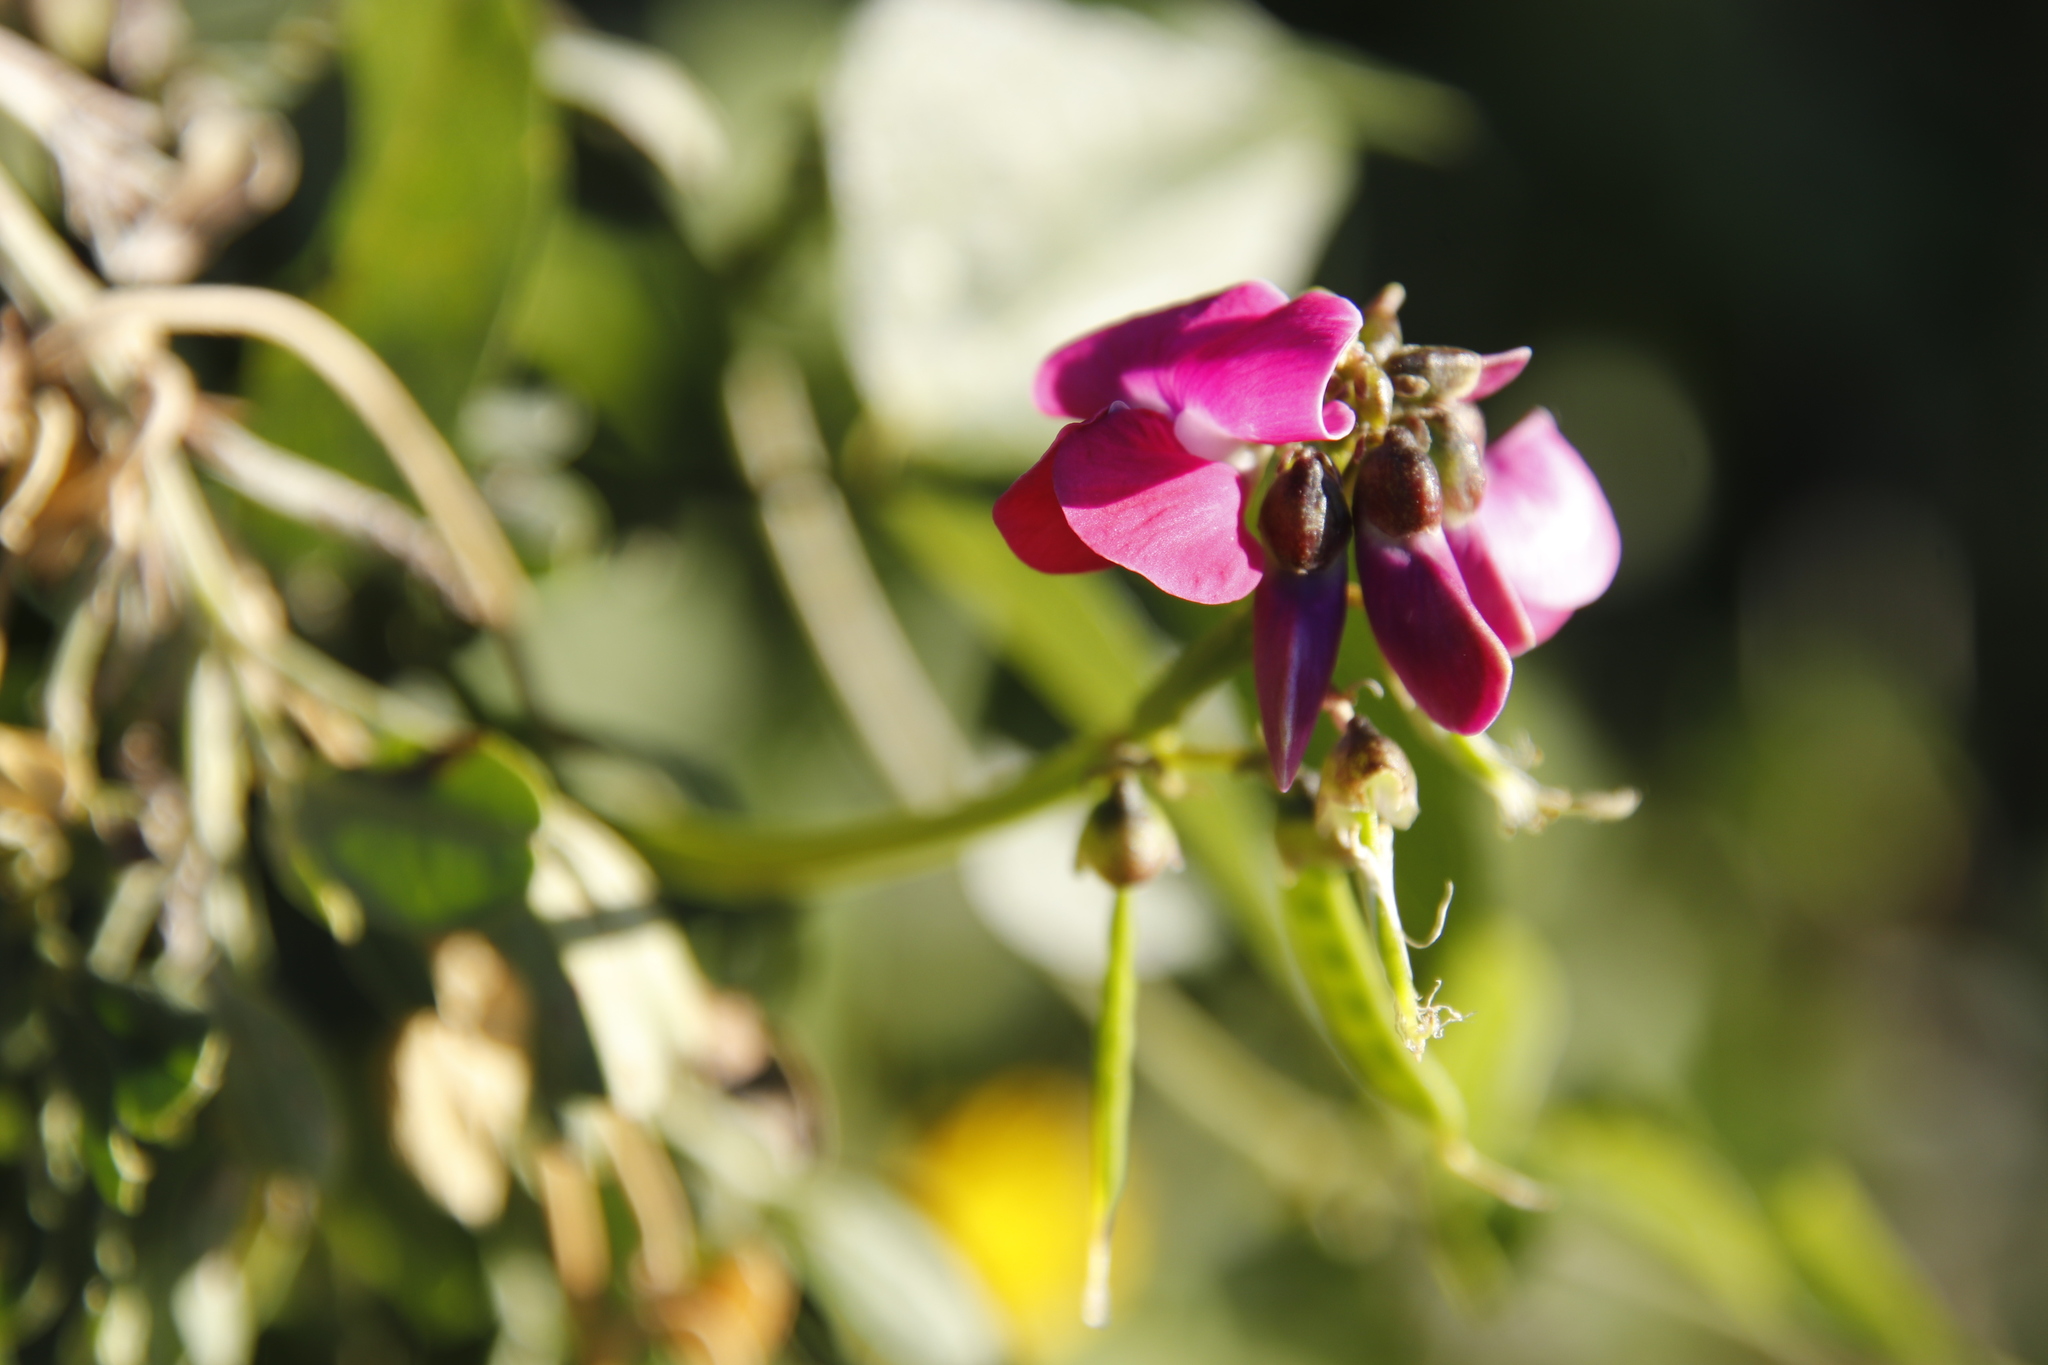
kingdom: Plantae
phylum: Tracheophyta
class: Magnoliopsida
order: Fabales
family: Fabaceae
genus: Dipogon
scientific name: Dipogon lignosus
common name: Okie bean
